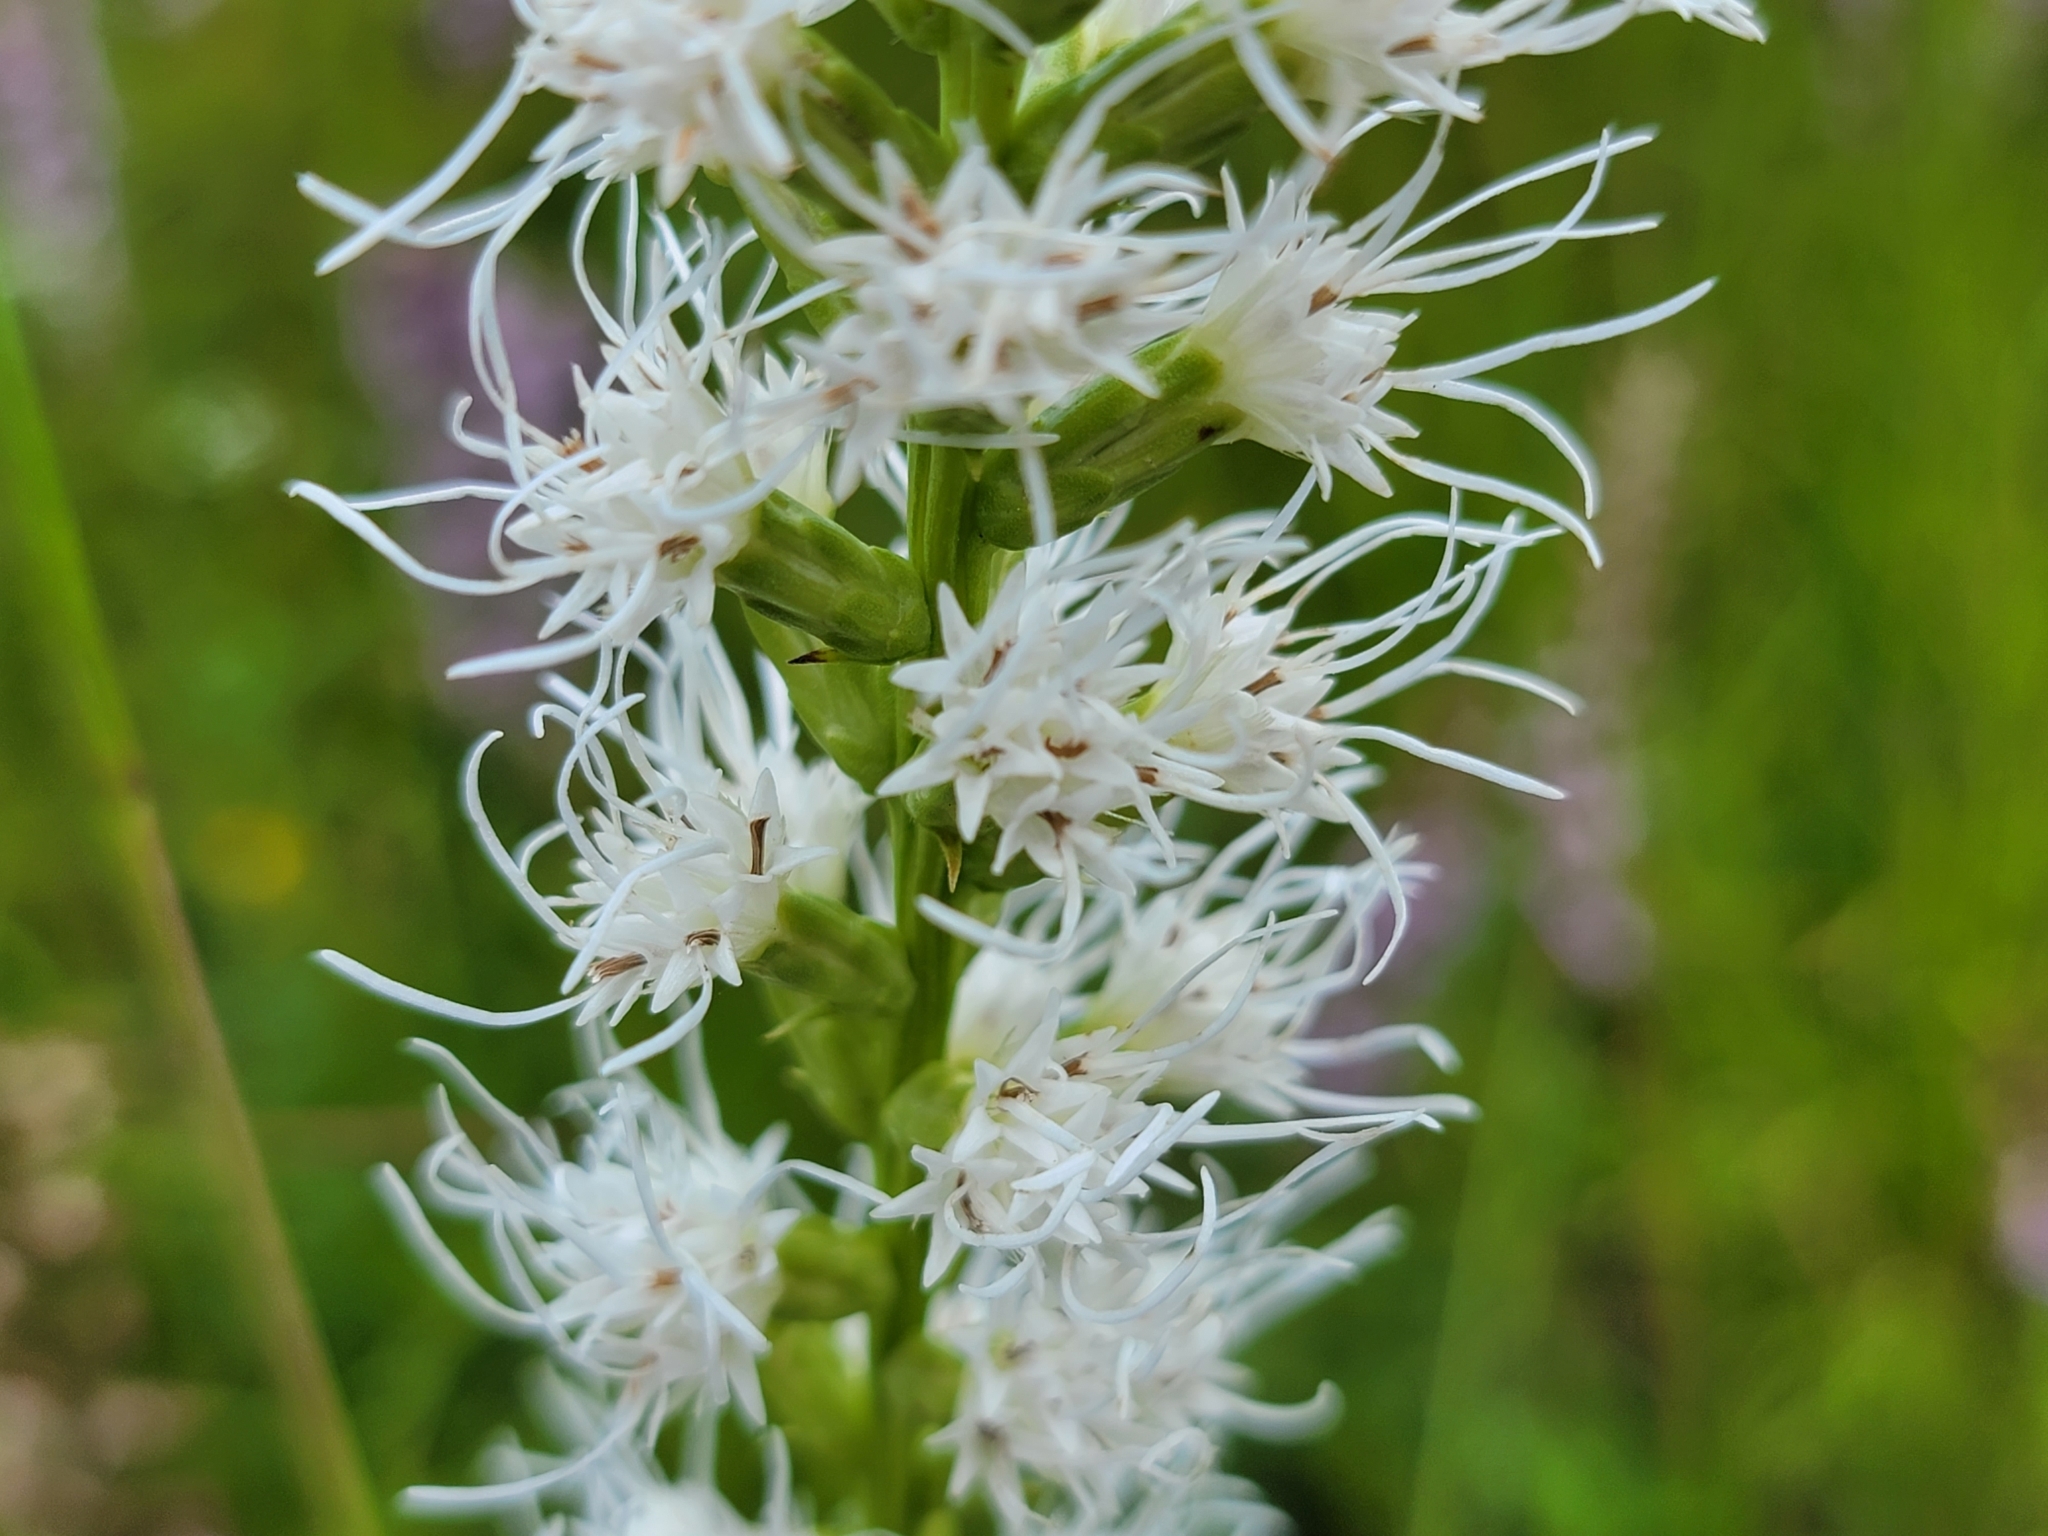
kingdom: Plantae
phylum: Tracheophyta
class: Magnoliopsida
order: Asterales
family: Asteraceae
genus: Liatris
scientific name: Liatris spicata
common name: Florist gayfeather
